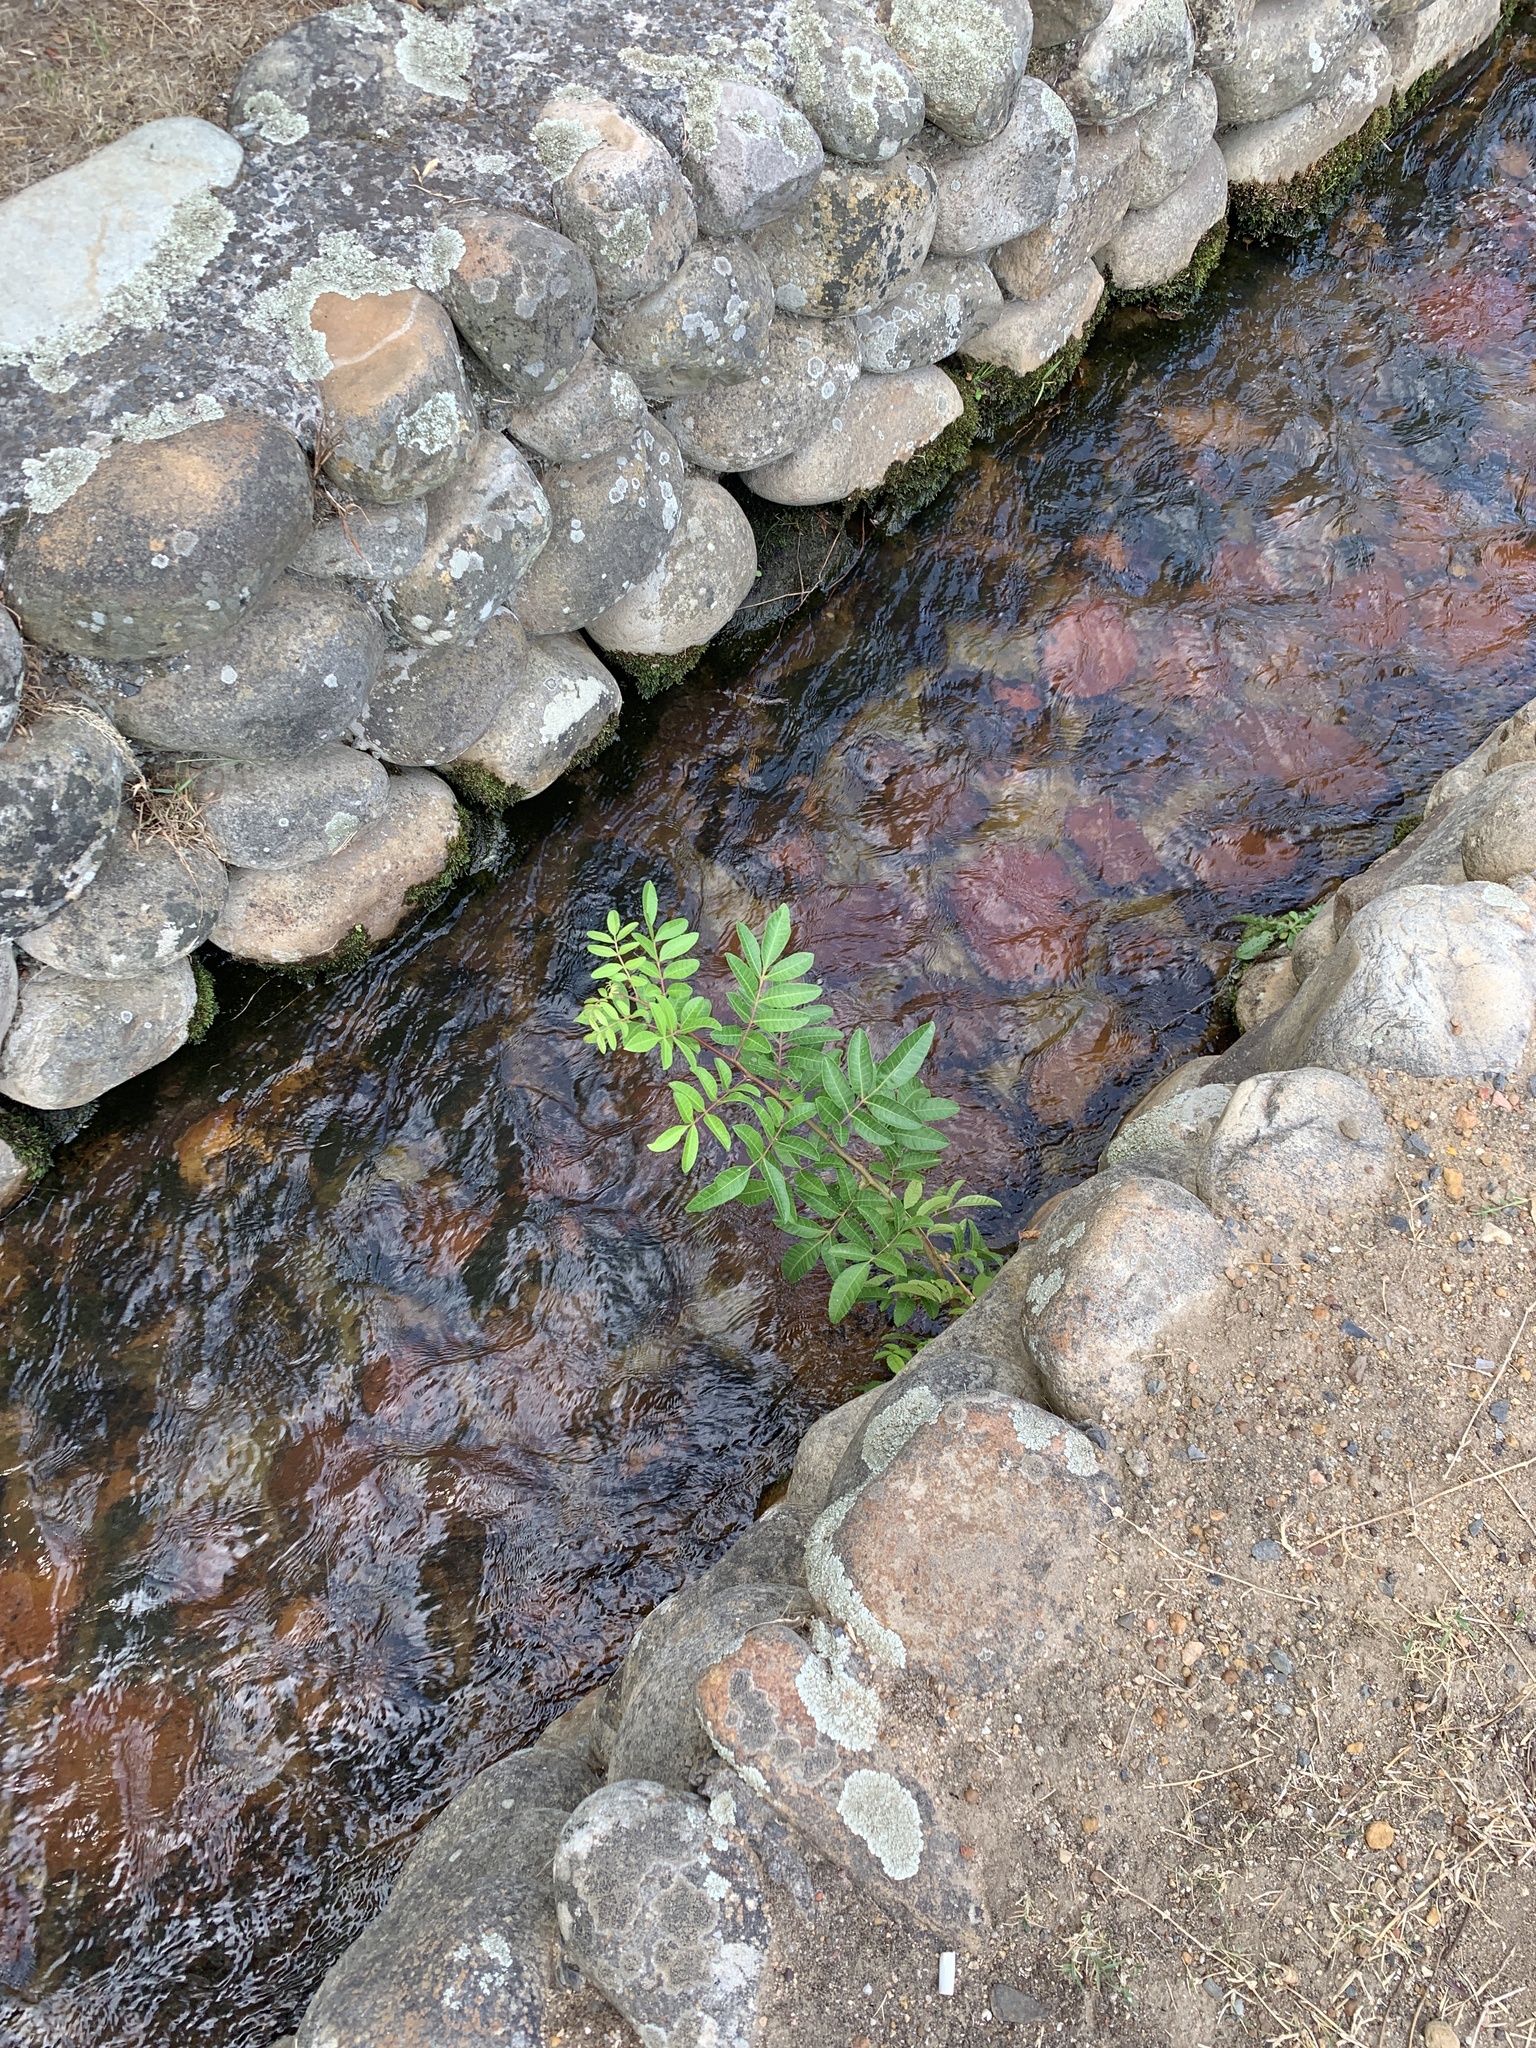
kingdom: Plantae
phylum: Tracheophyta
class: Magnoliopsida
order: Sapindales
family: Anacardiaceae
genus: Schinus
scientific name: Schinus terebinthifolia
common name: Brazilian peppertree
